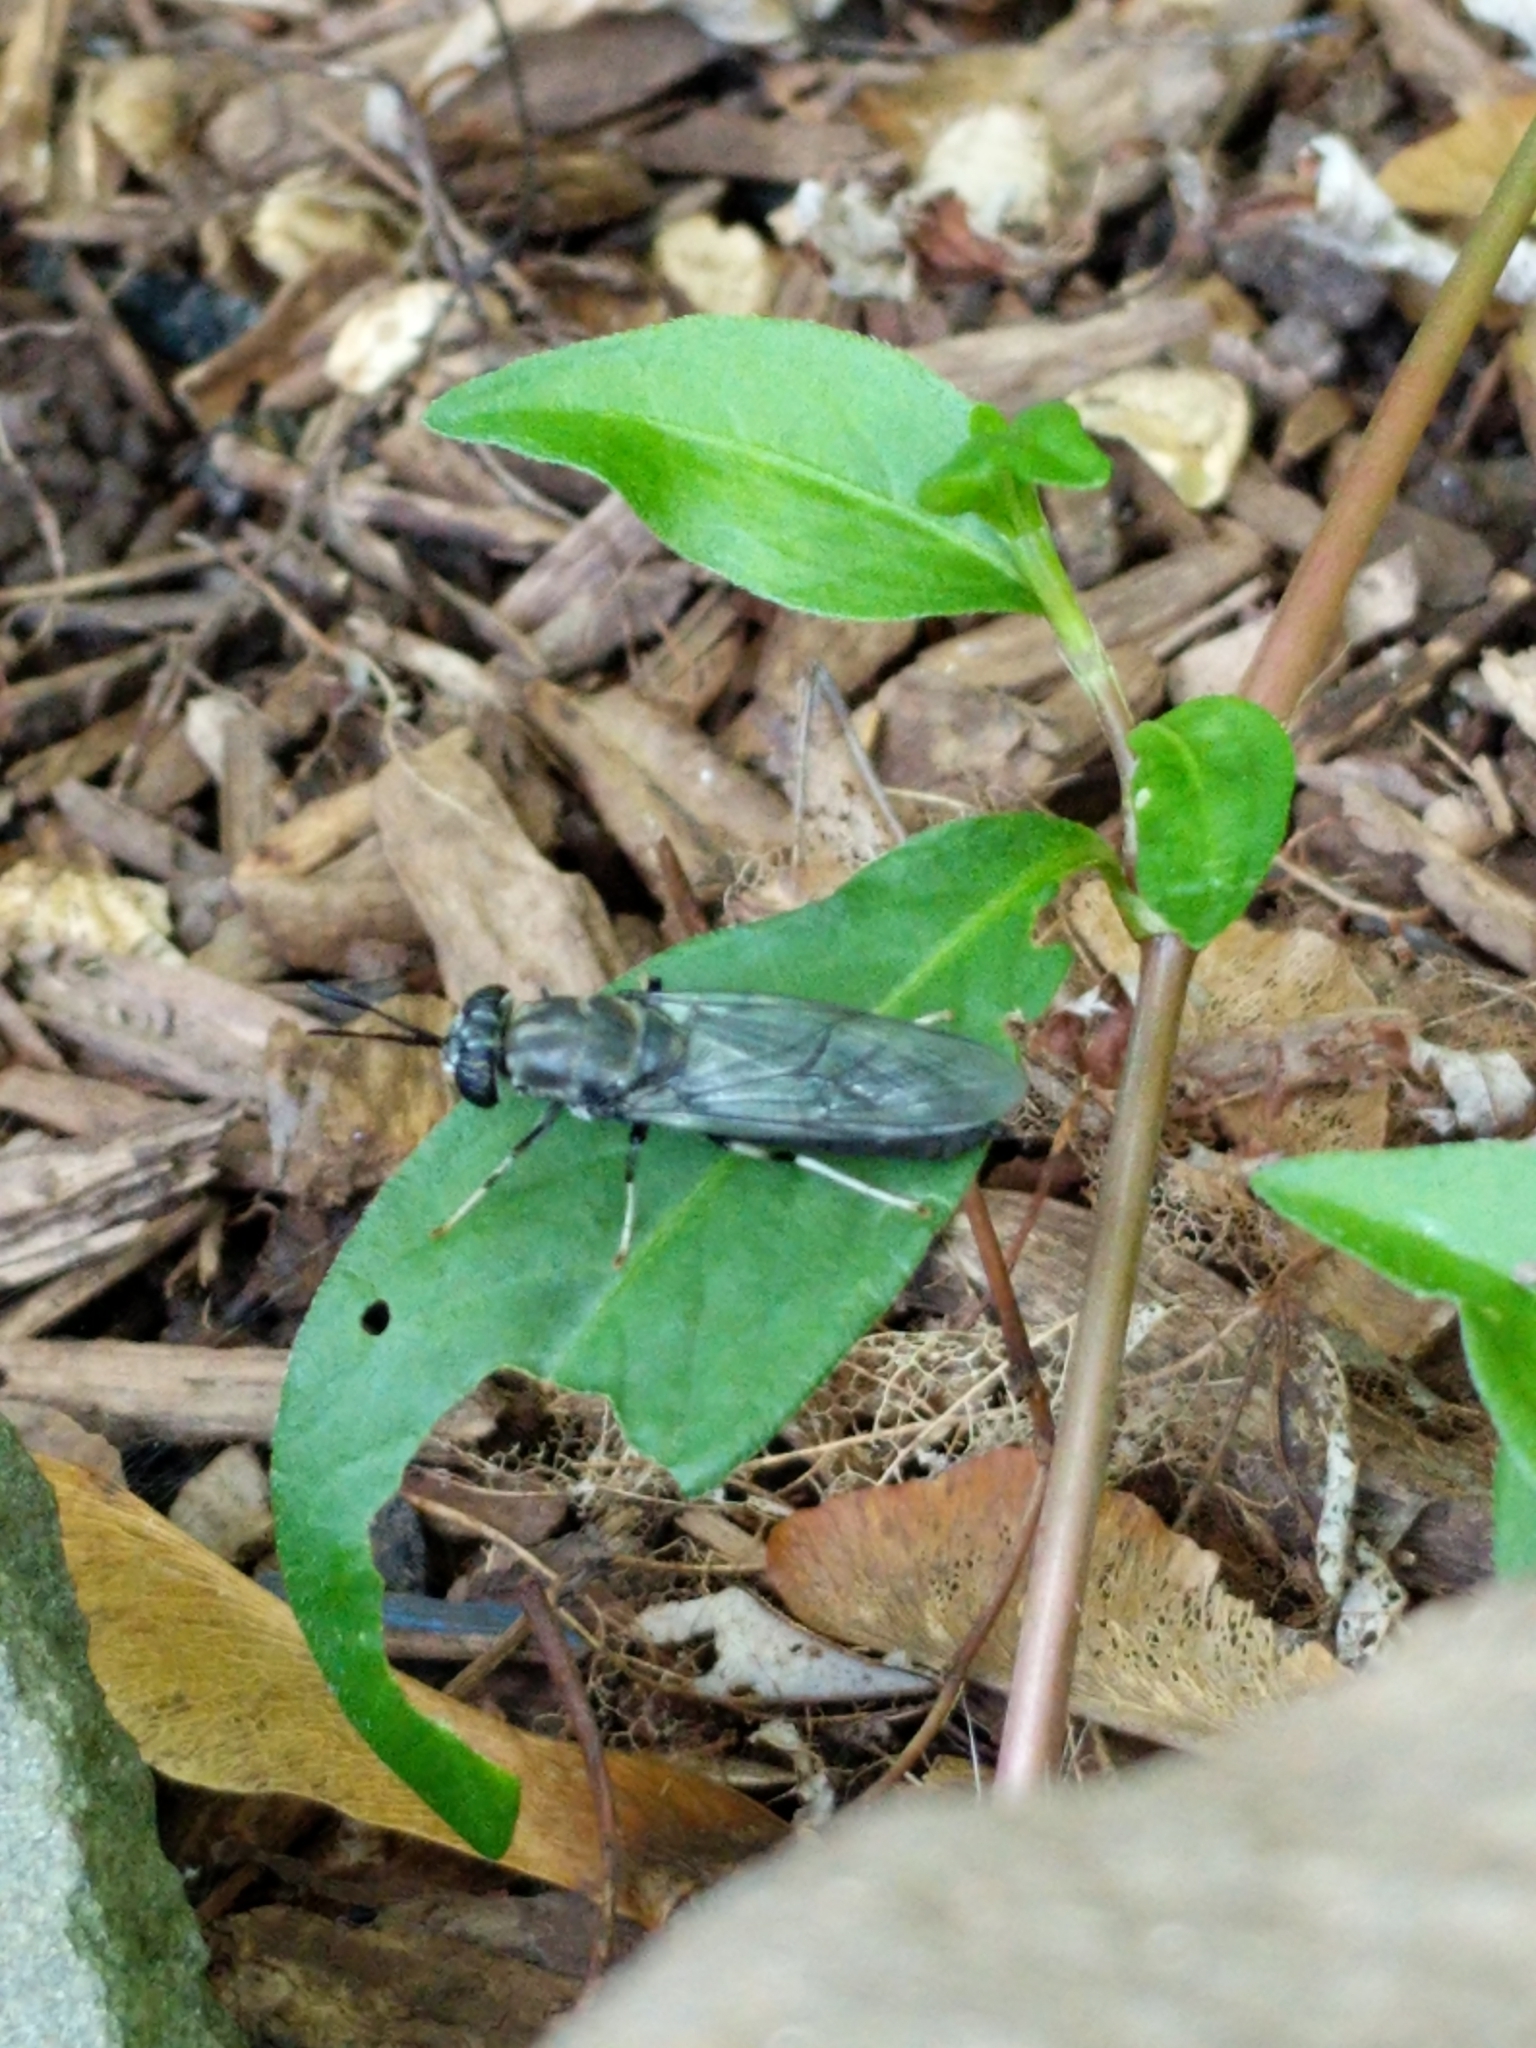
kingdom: Animalia
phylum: Arthropoda
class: Insecta
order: Diptera
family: Stratiomyidae
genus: Hermetia
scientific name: Hermetia illucens
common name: Black soldier fly
